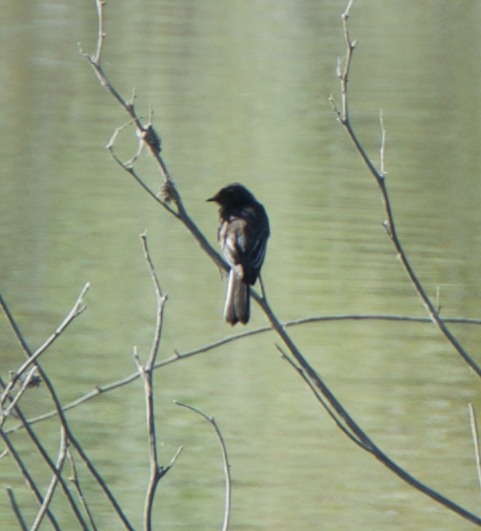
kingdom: Animalia
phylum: Chordata
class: Aves
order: Passeriformes
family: Tyrannidae
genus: Sayornis
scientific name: Sayornis nigricans
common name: Black phoebe
